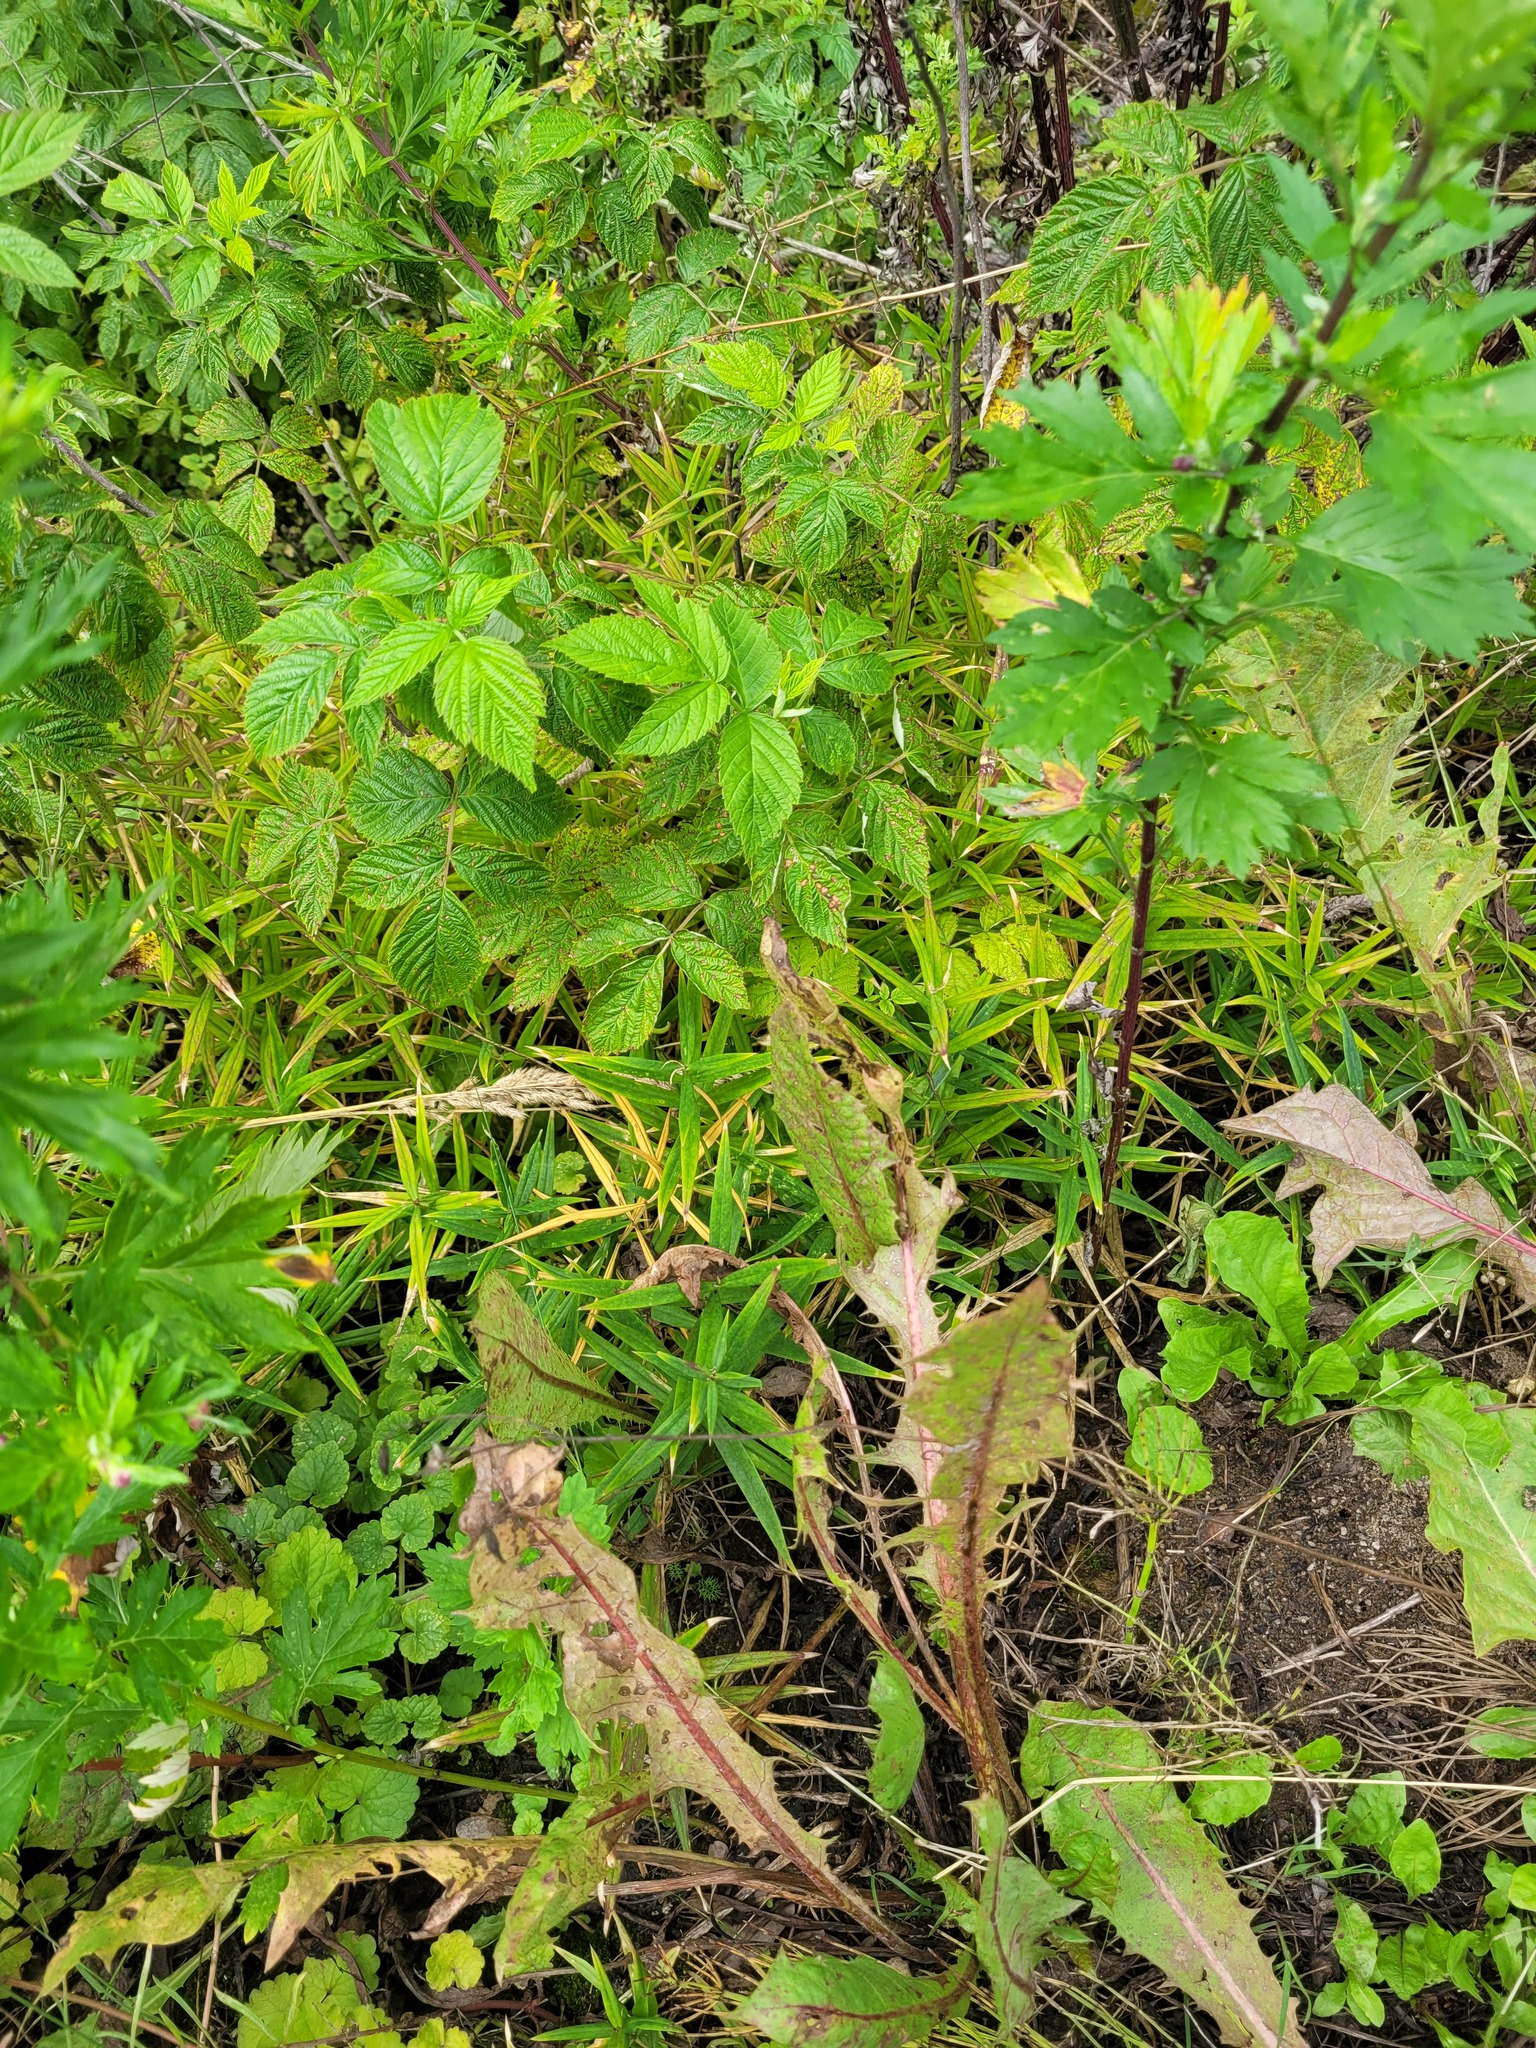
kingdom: Plantae
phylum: Tracheophyta
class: Magnoliopsida
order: Caryophyllales
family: Caryophyllaceae
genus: Rabelera
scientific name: Rabelera holostea
